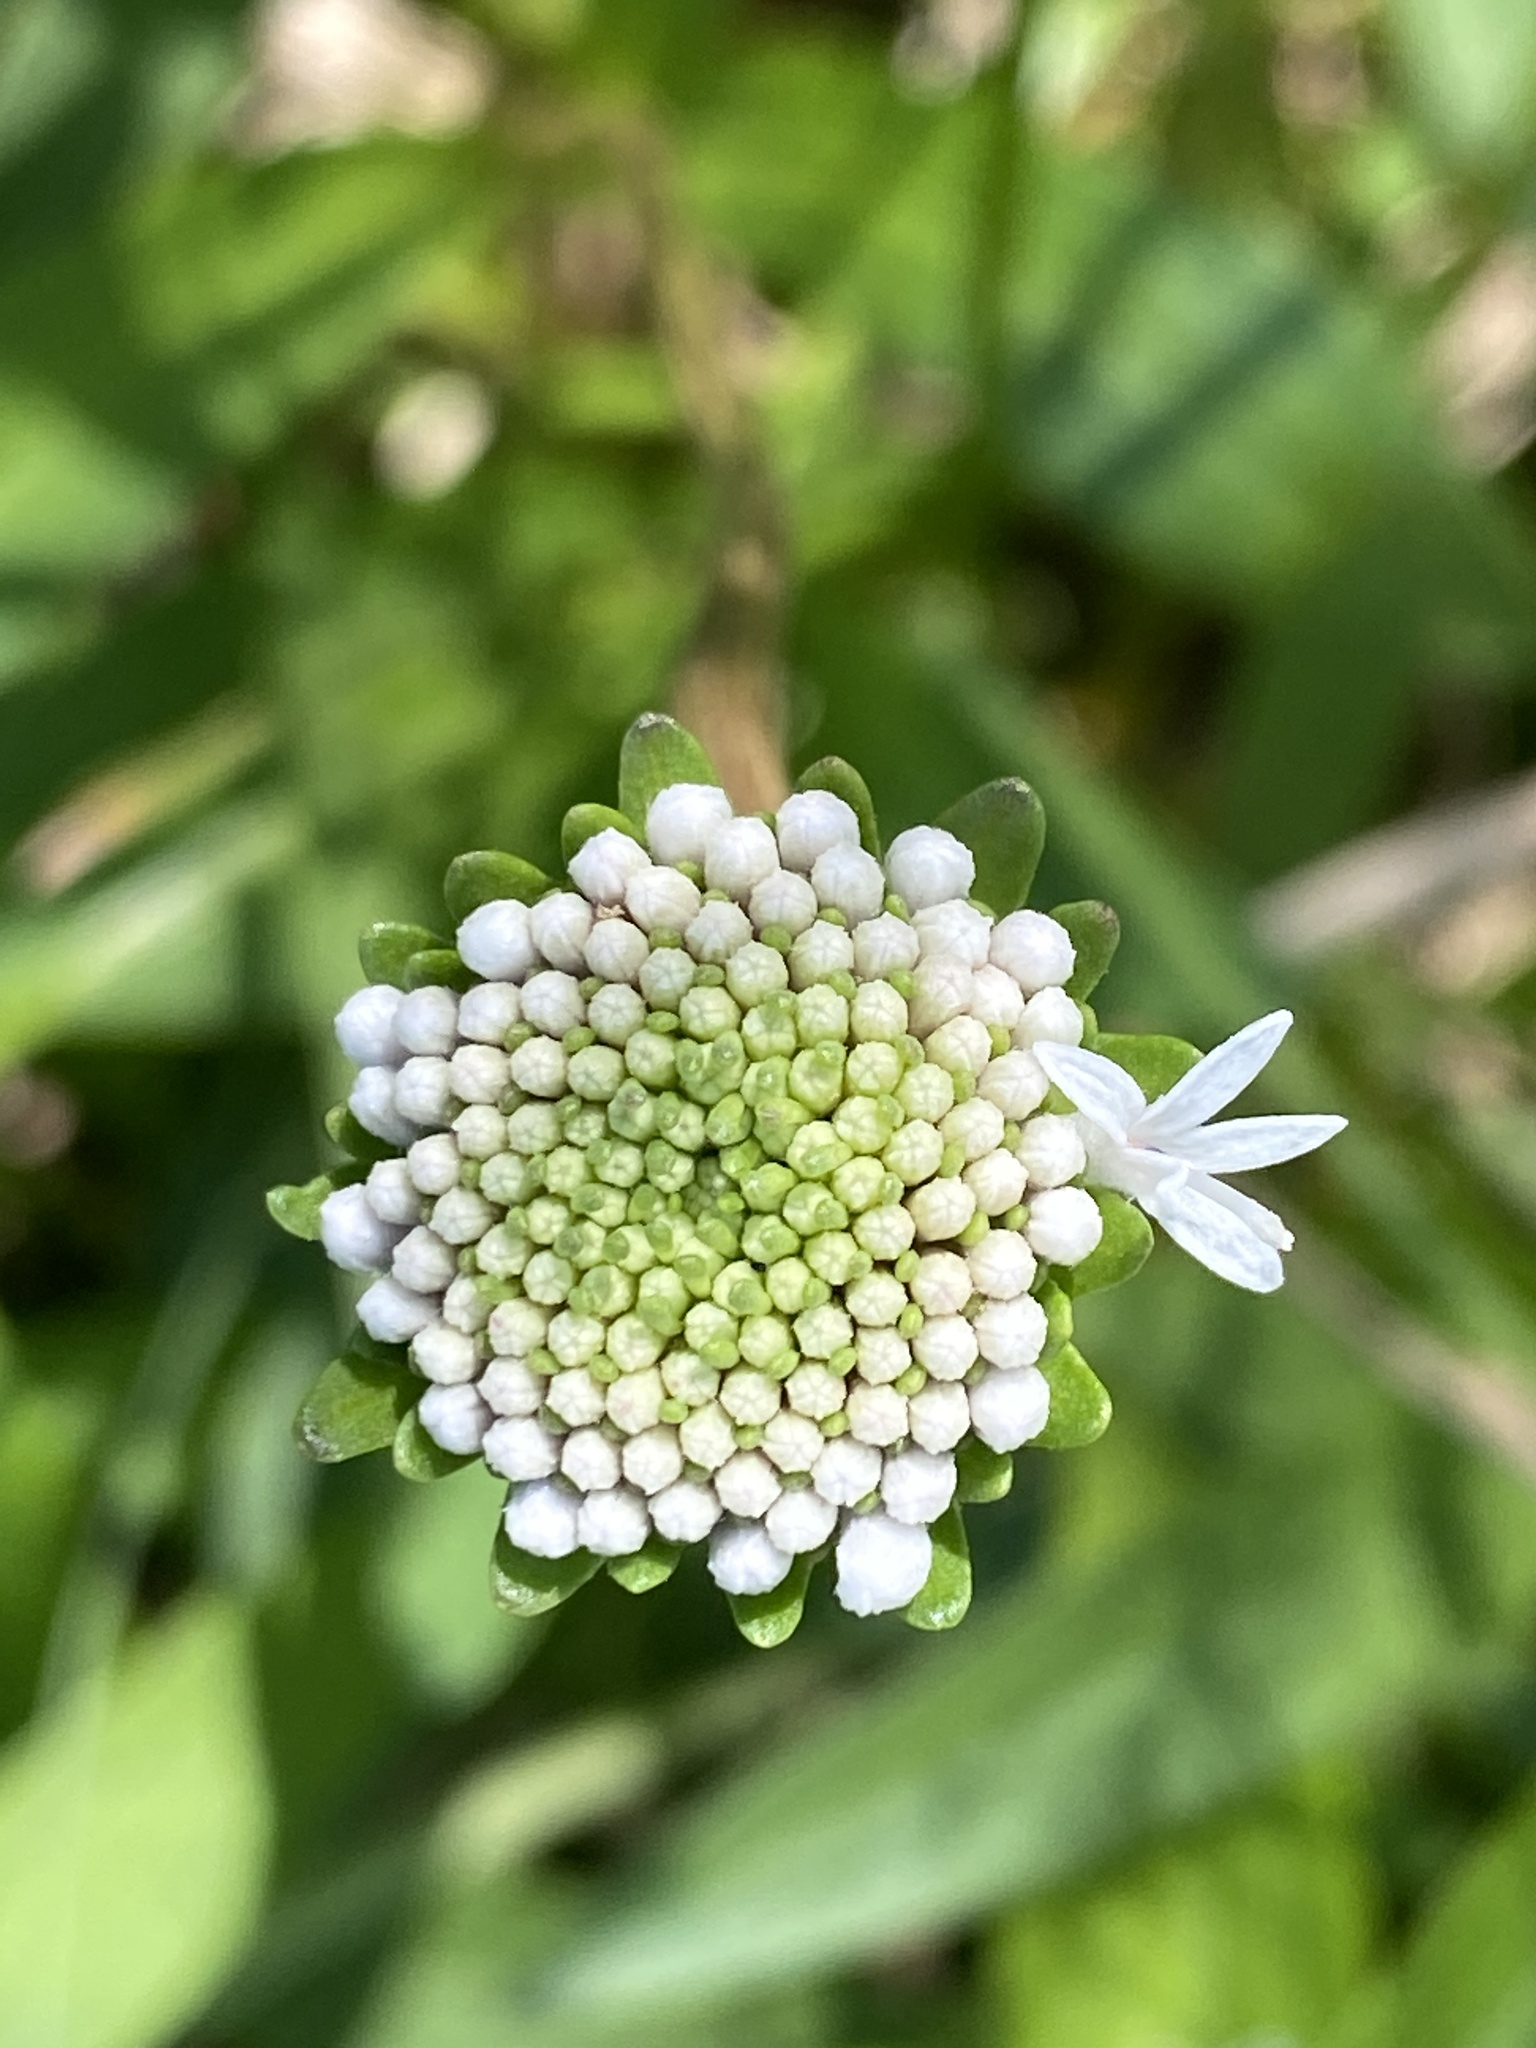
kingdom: Plantae
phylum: Tracheophyta
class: Magnoliopsida
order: Asterales
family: Asteraceae
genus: Marshallia
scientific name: Marshallia obovata
